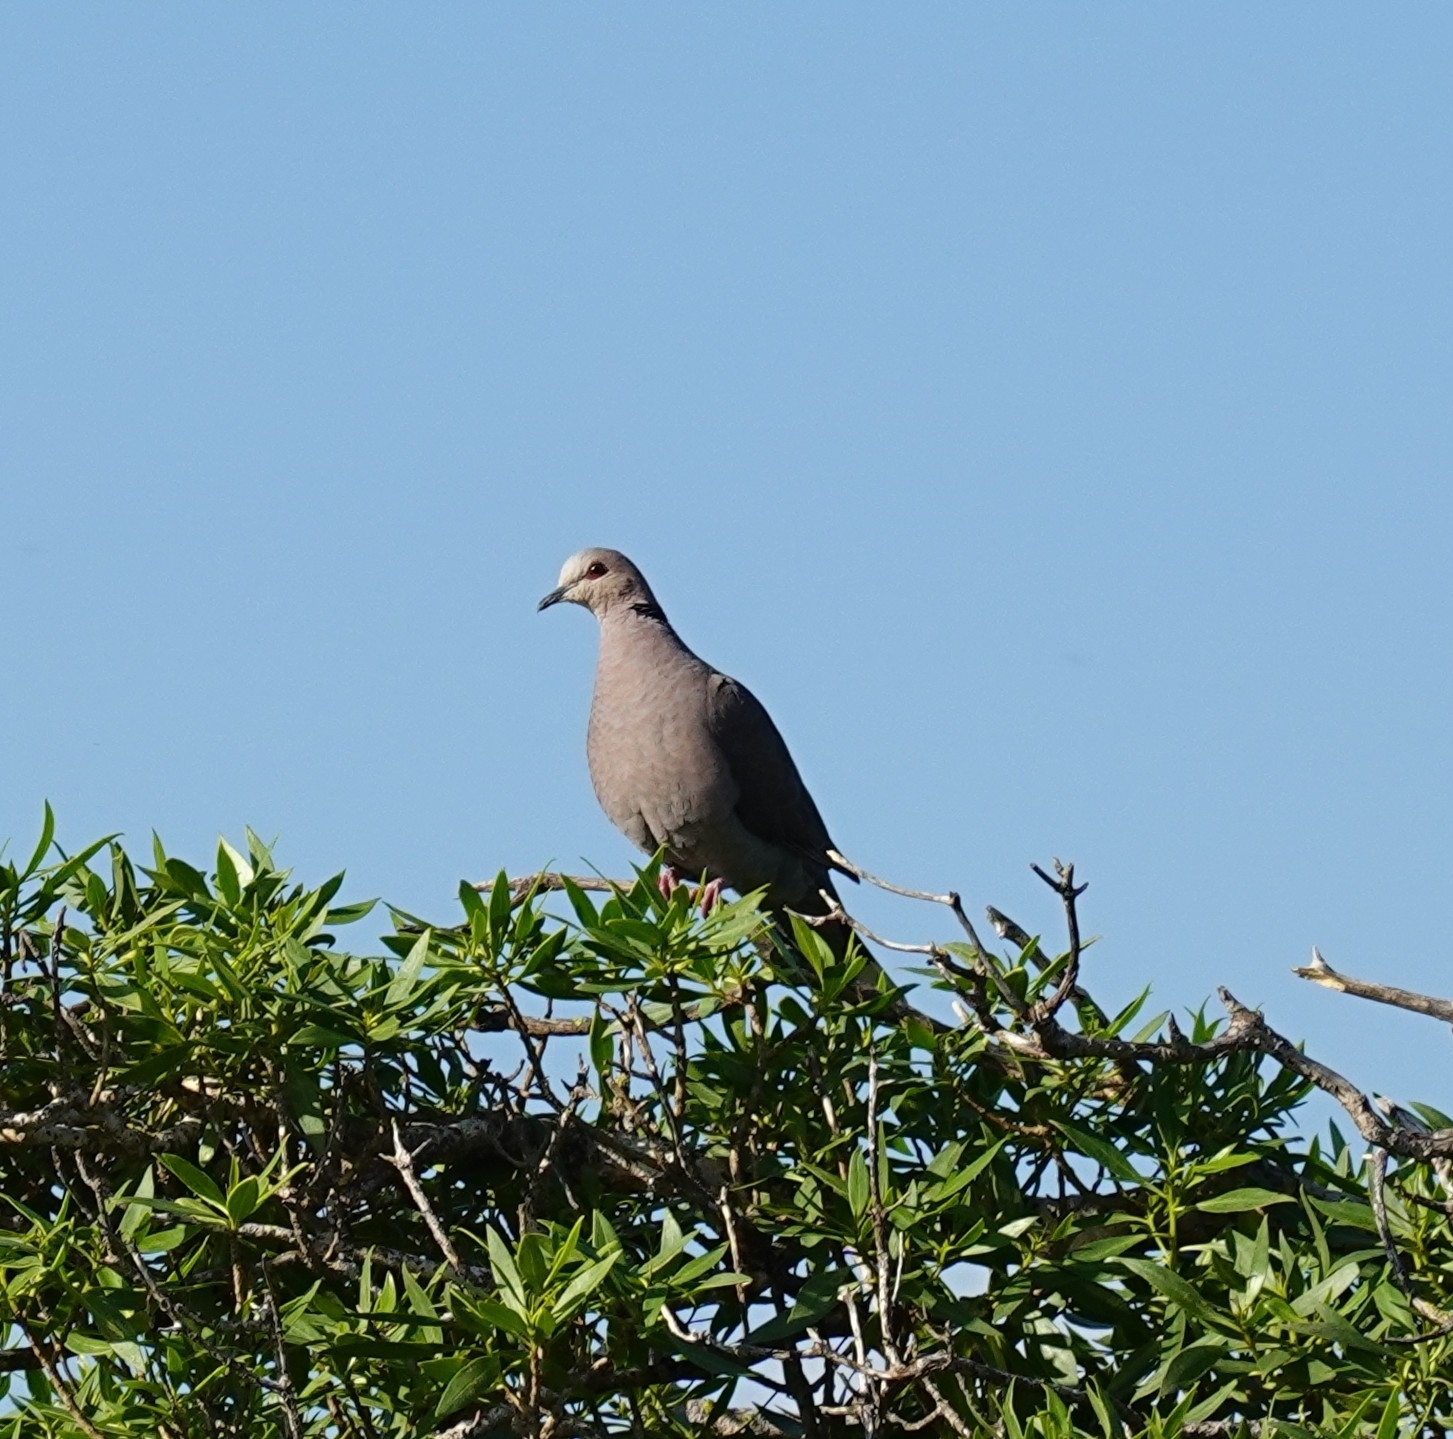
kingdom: Animalia
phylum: Chordata
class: Aves
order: Columbiformes
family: Columbidae
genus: Streptopelia
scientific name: Streptopelia semitorquata
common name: Red-eyed dove
